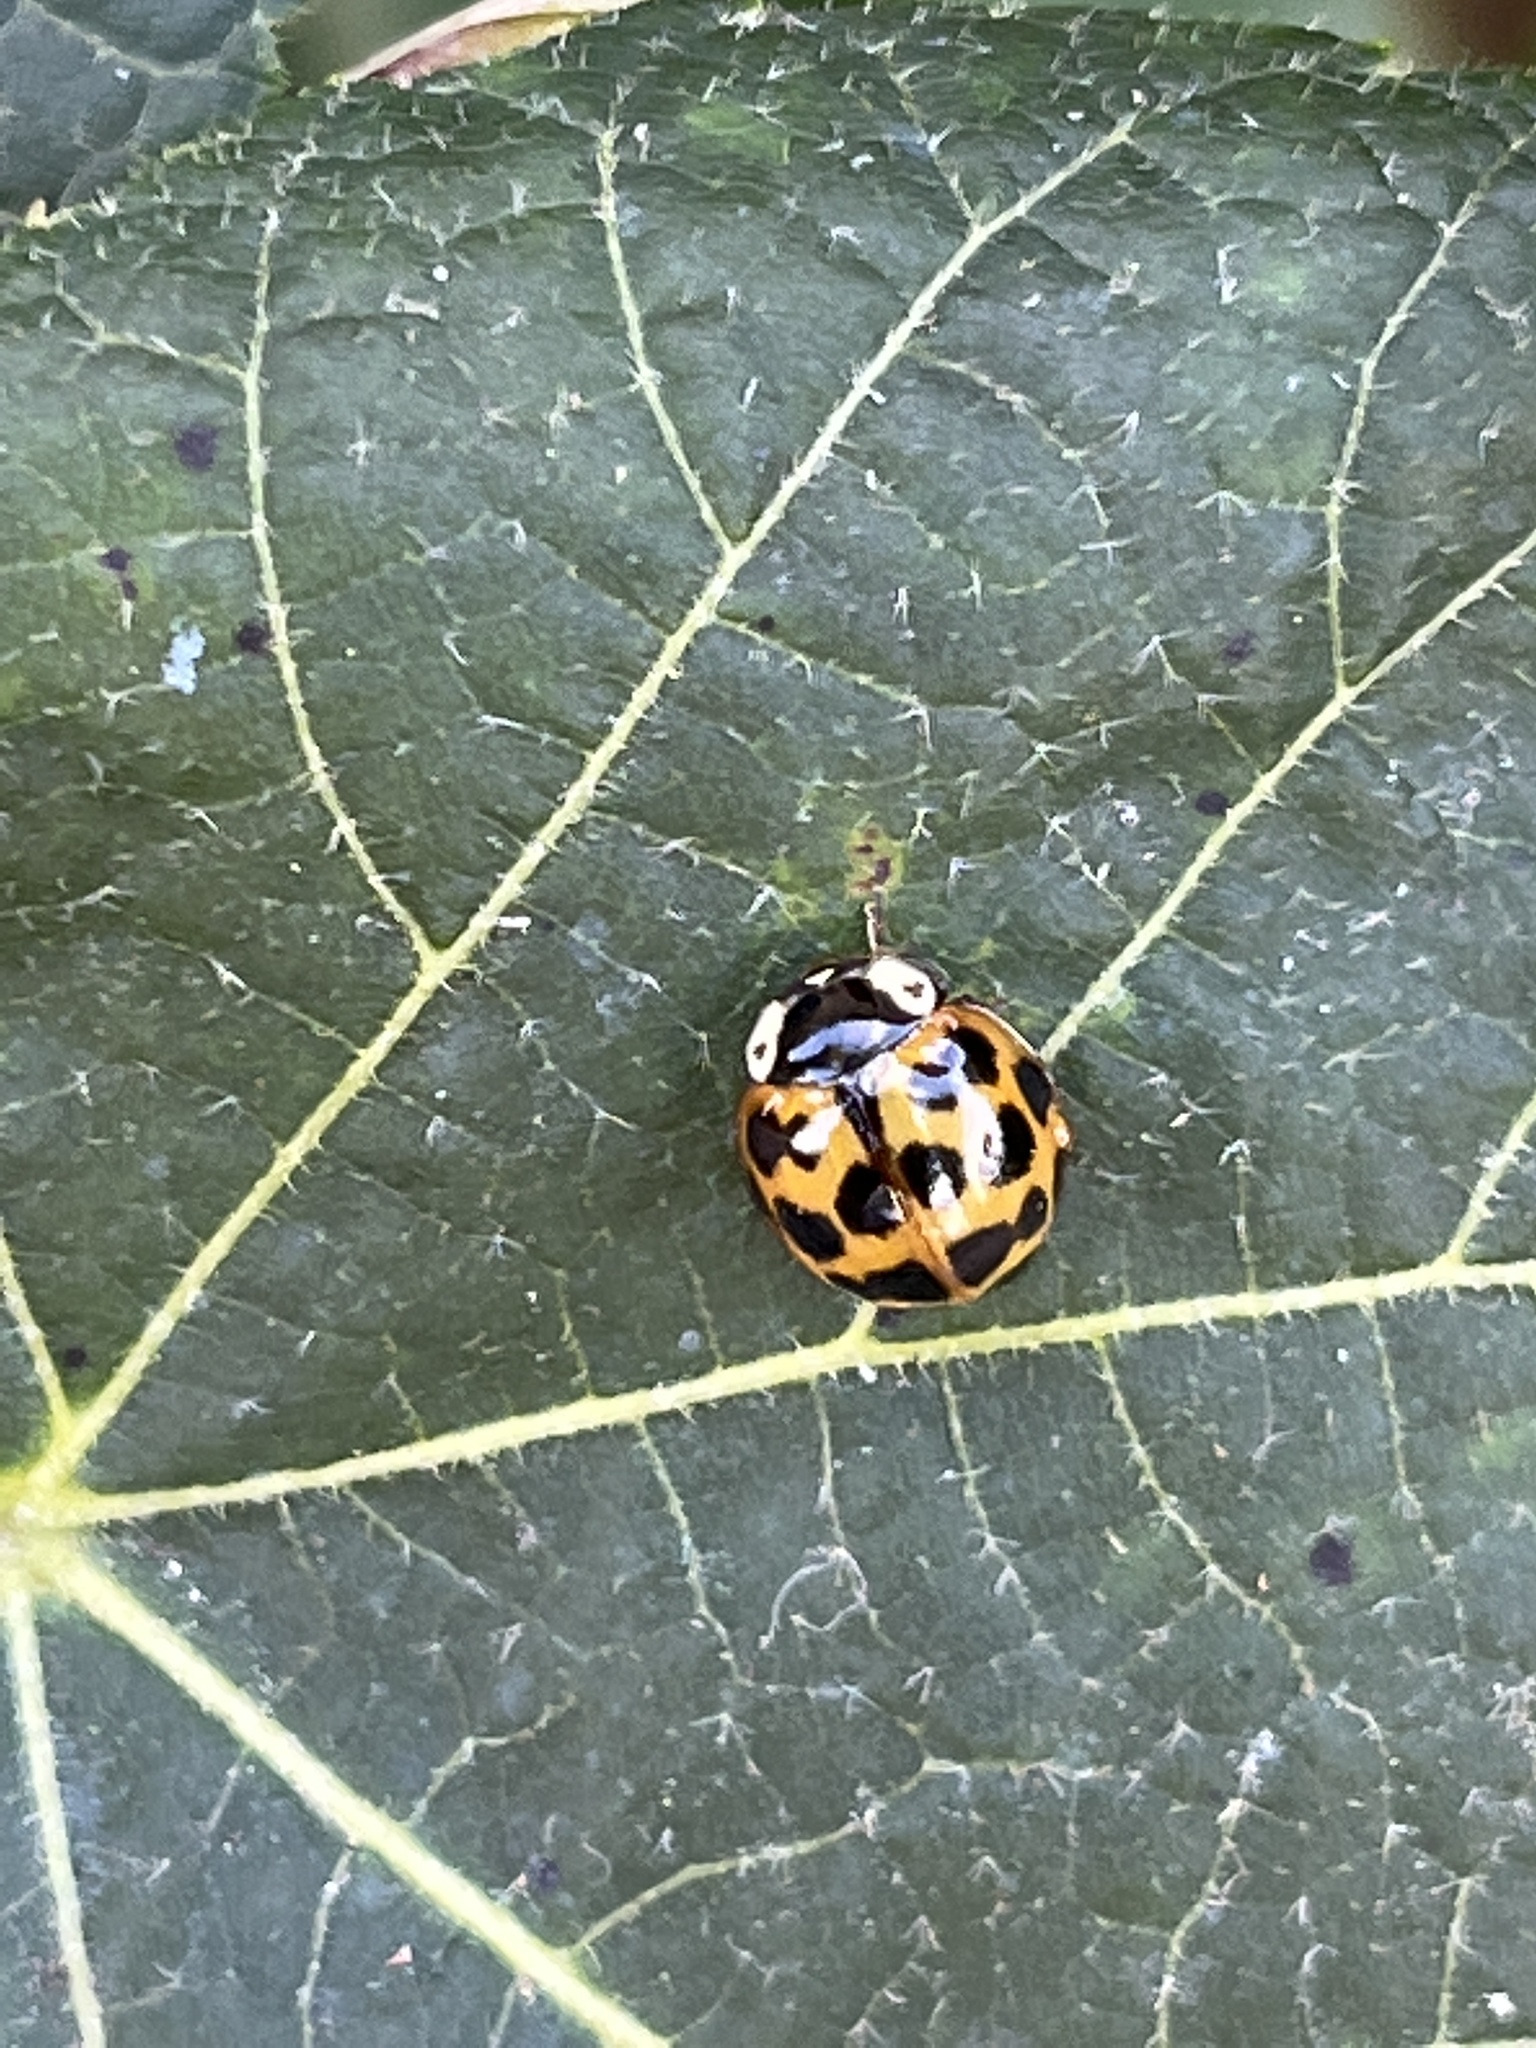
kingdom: Animalia
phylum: Arthropoda
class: Insecta
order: Coleoptera
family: Coccinellidae
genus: Harmonia
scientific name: Harmonia axyridis
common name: Harlequin ladybird
